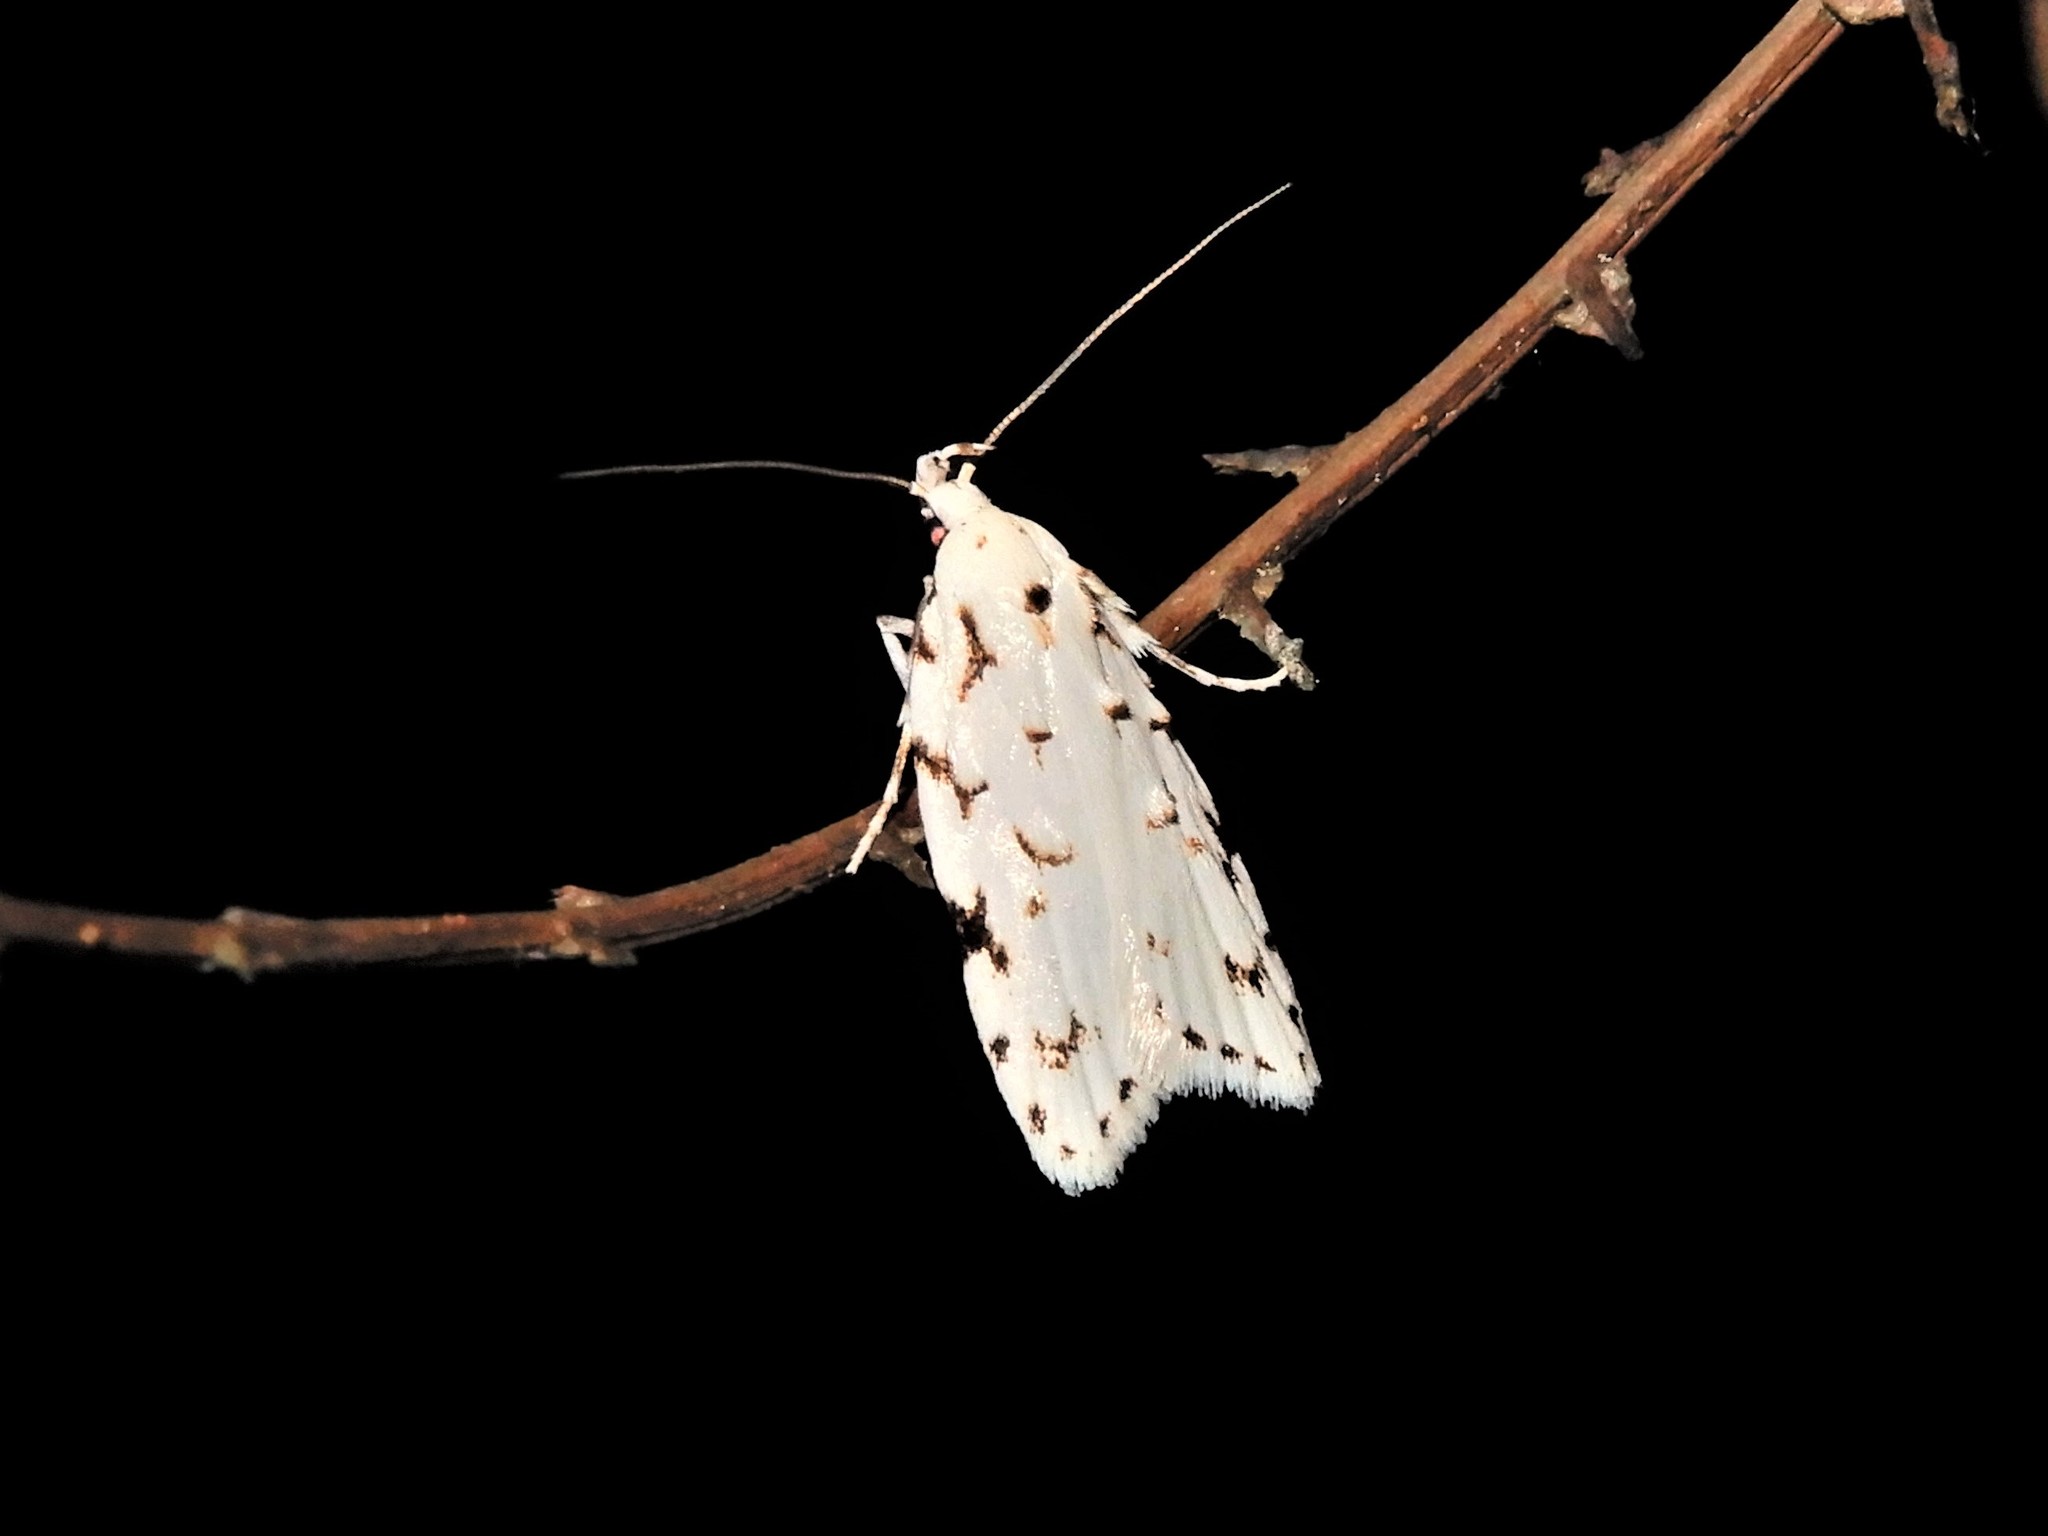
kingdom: Animalia
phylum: Arthropoda
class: Insecta
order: Lepidoptera
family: Oecophoridae
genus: Izatha
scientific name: Izatha hudsoni
